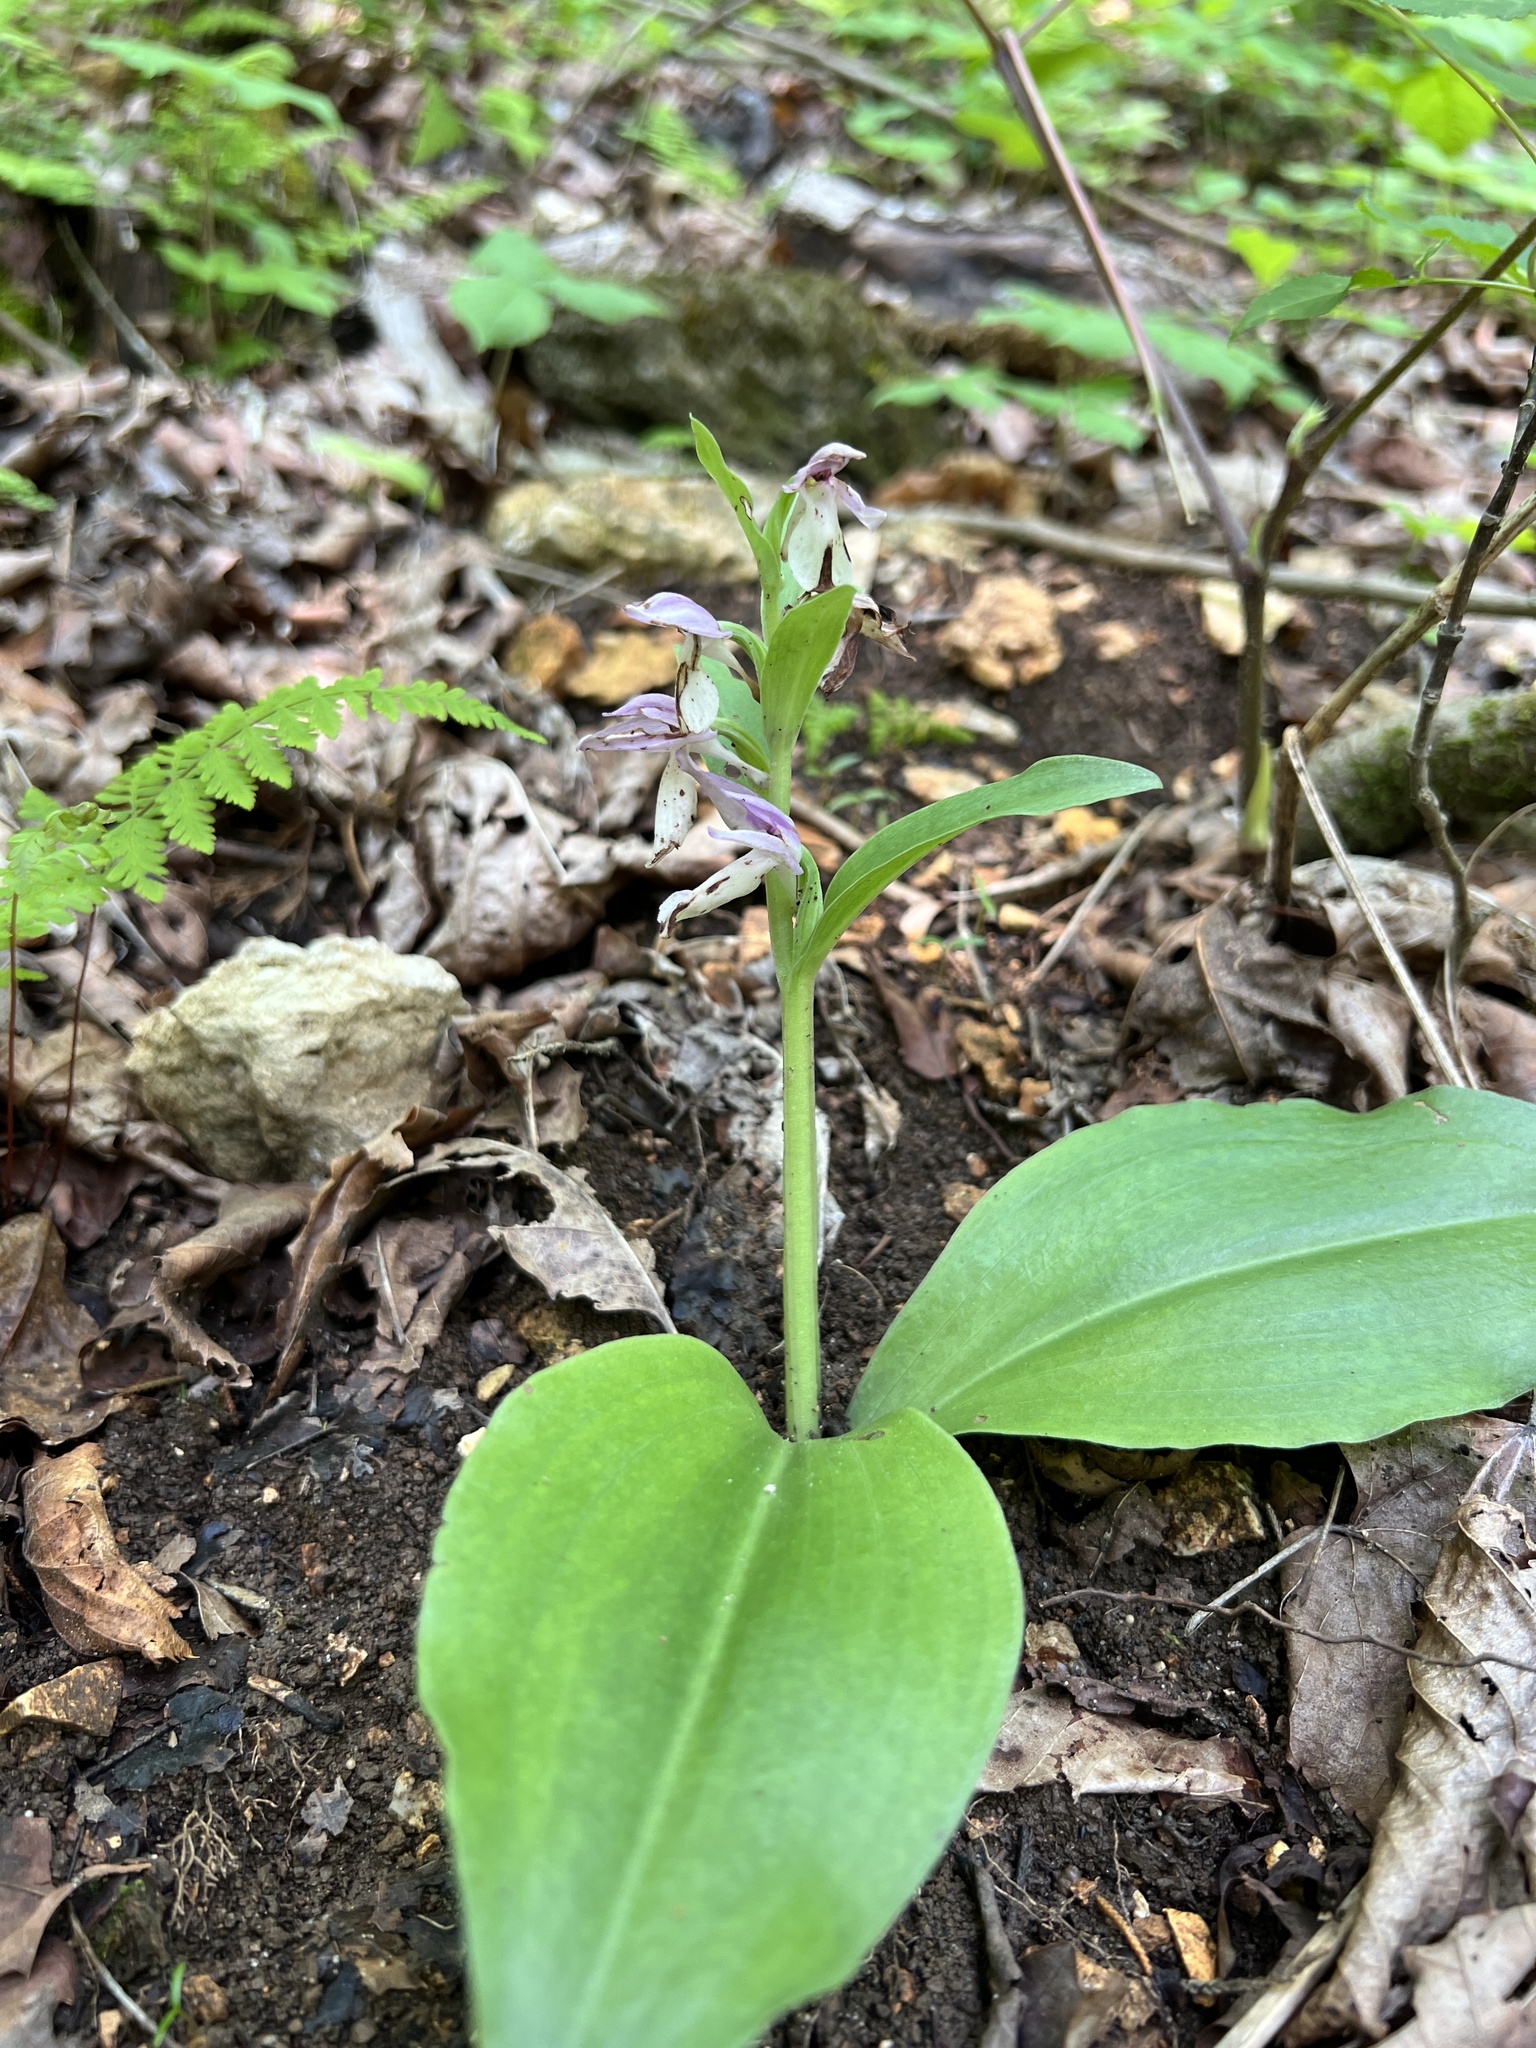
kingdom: Plantae
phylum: Tracheophyta
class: Liliopsida
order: Asparagales
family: Orchidaceae
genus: Galearis
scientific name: Galearis spectabilis
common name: Purple-hooded orchis
